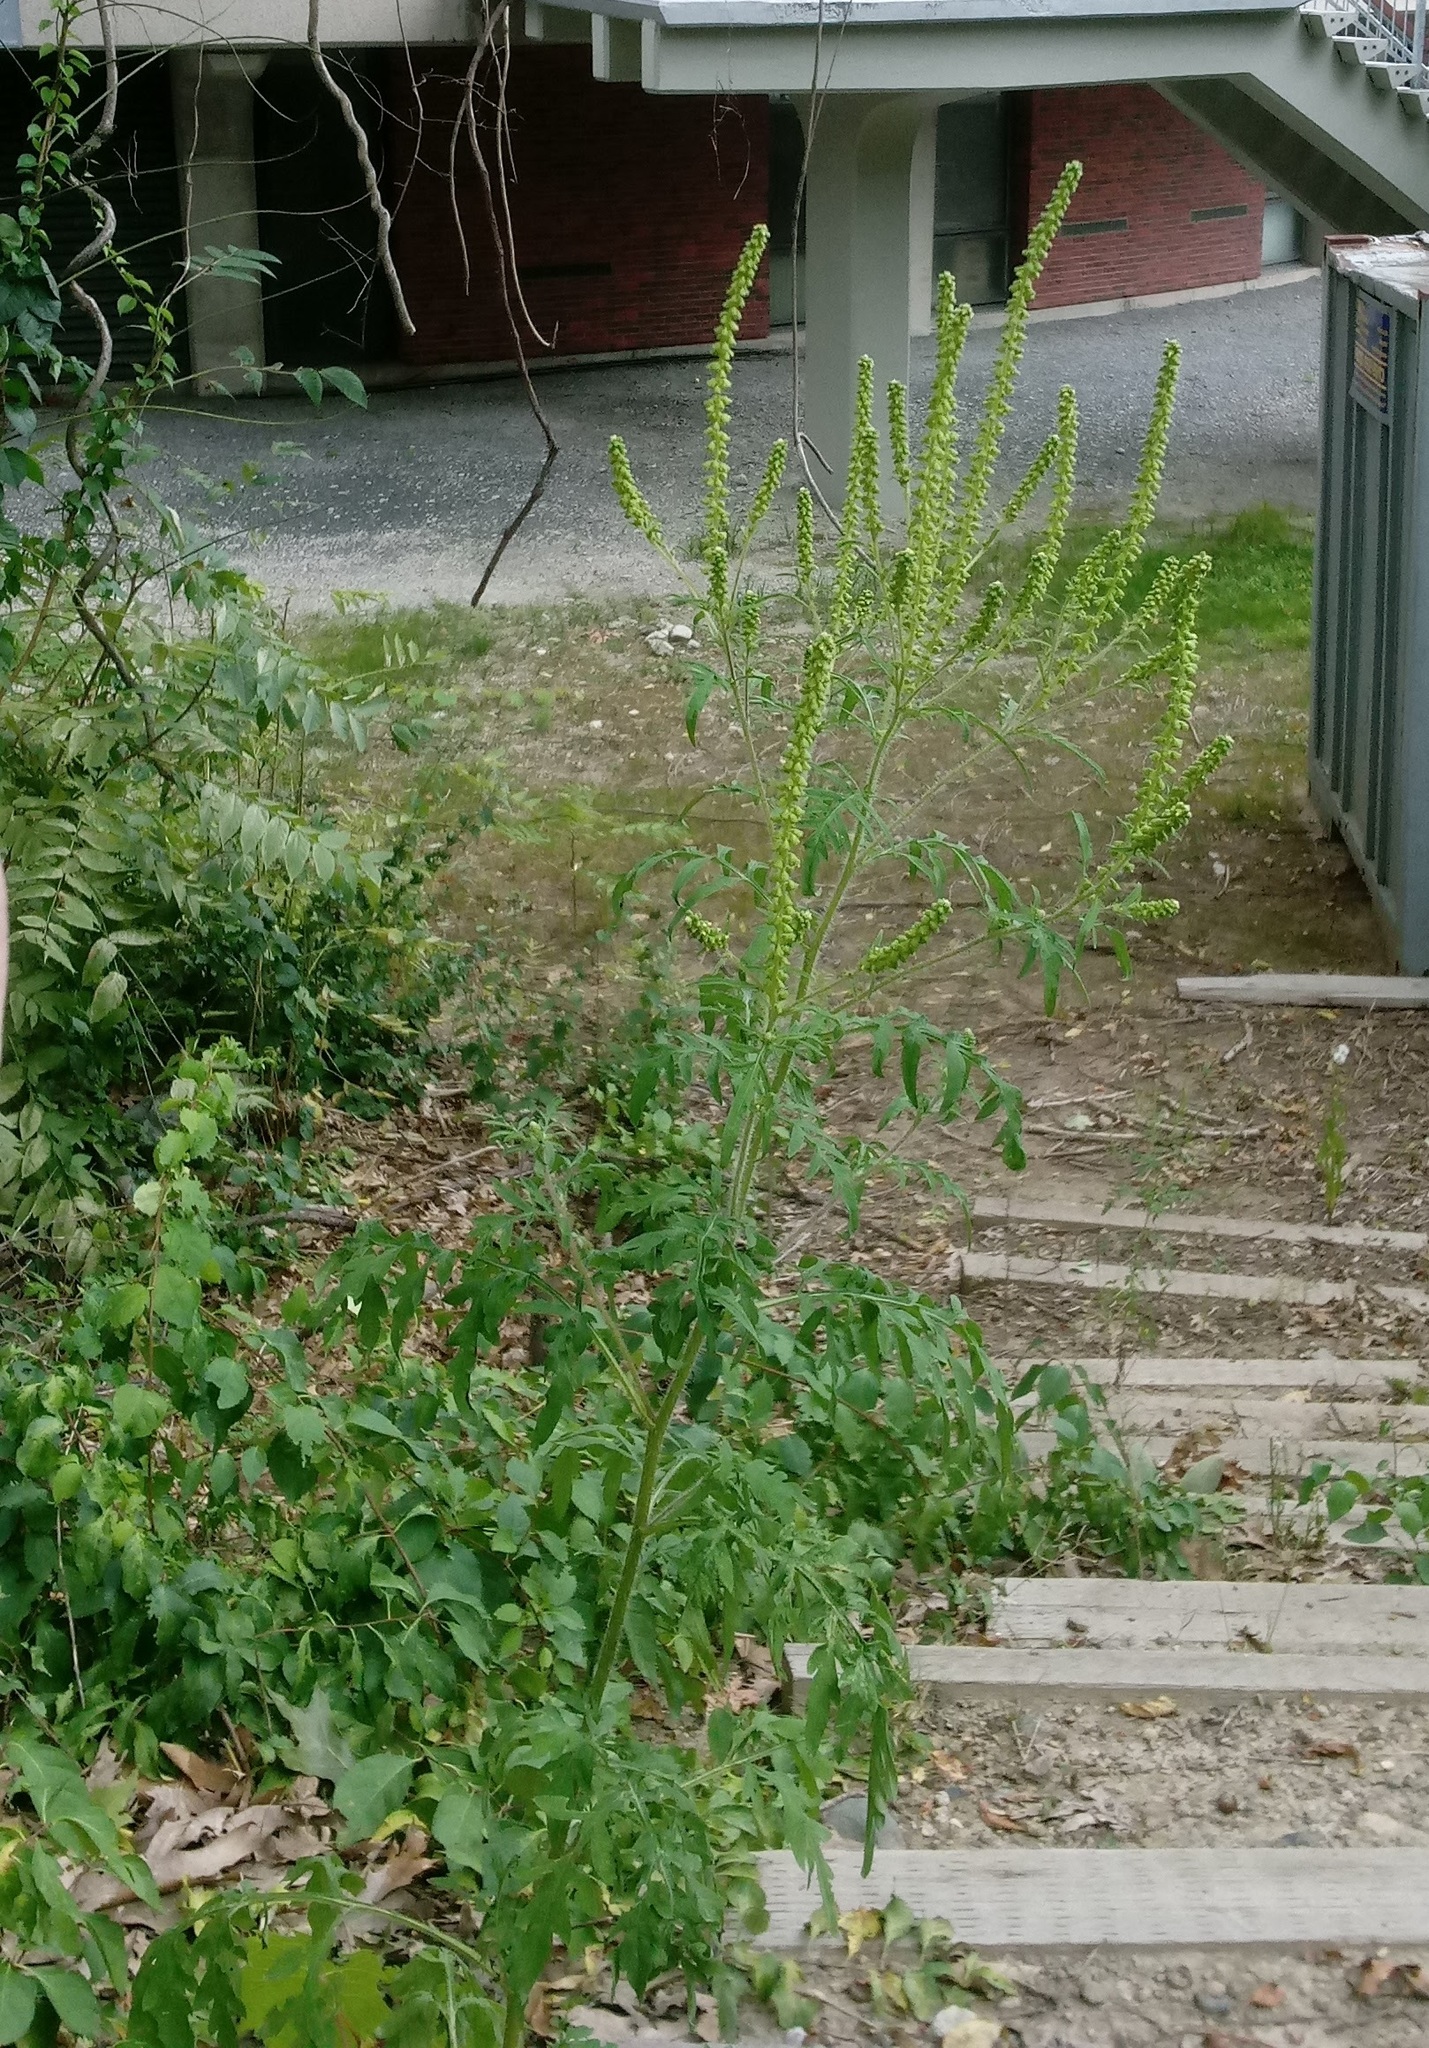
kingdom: Plantae
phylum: Tracheophyta
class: Magnoliopsida
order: Asterales
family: Asteraceae
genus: Ambrosia
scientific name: Ambrosia artemisiifolia
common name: Annual ragweed
